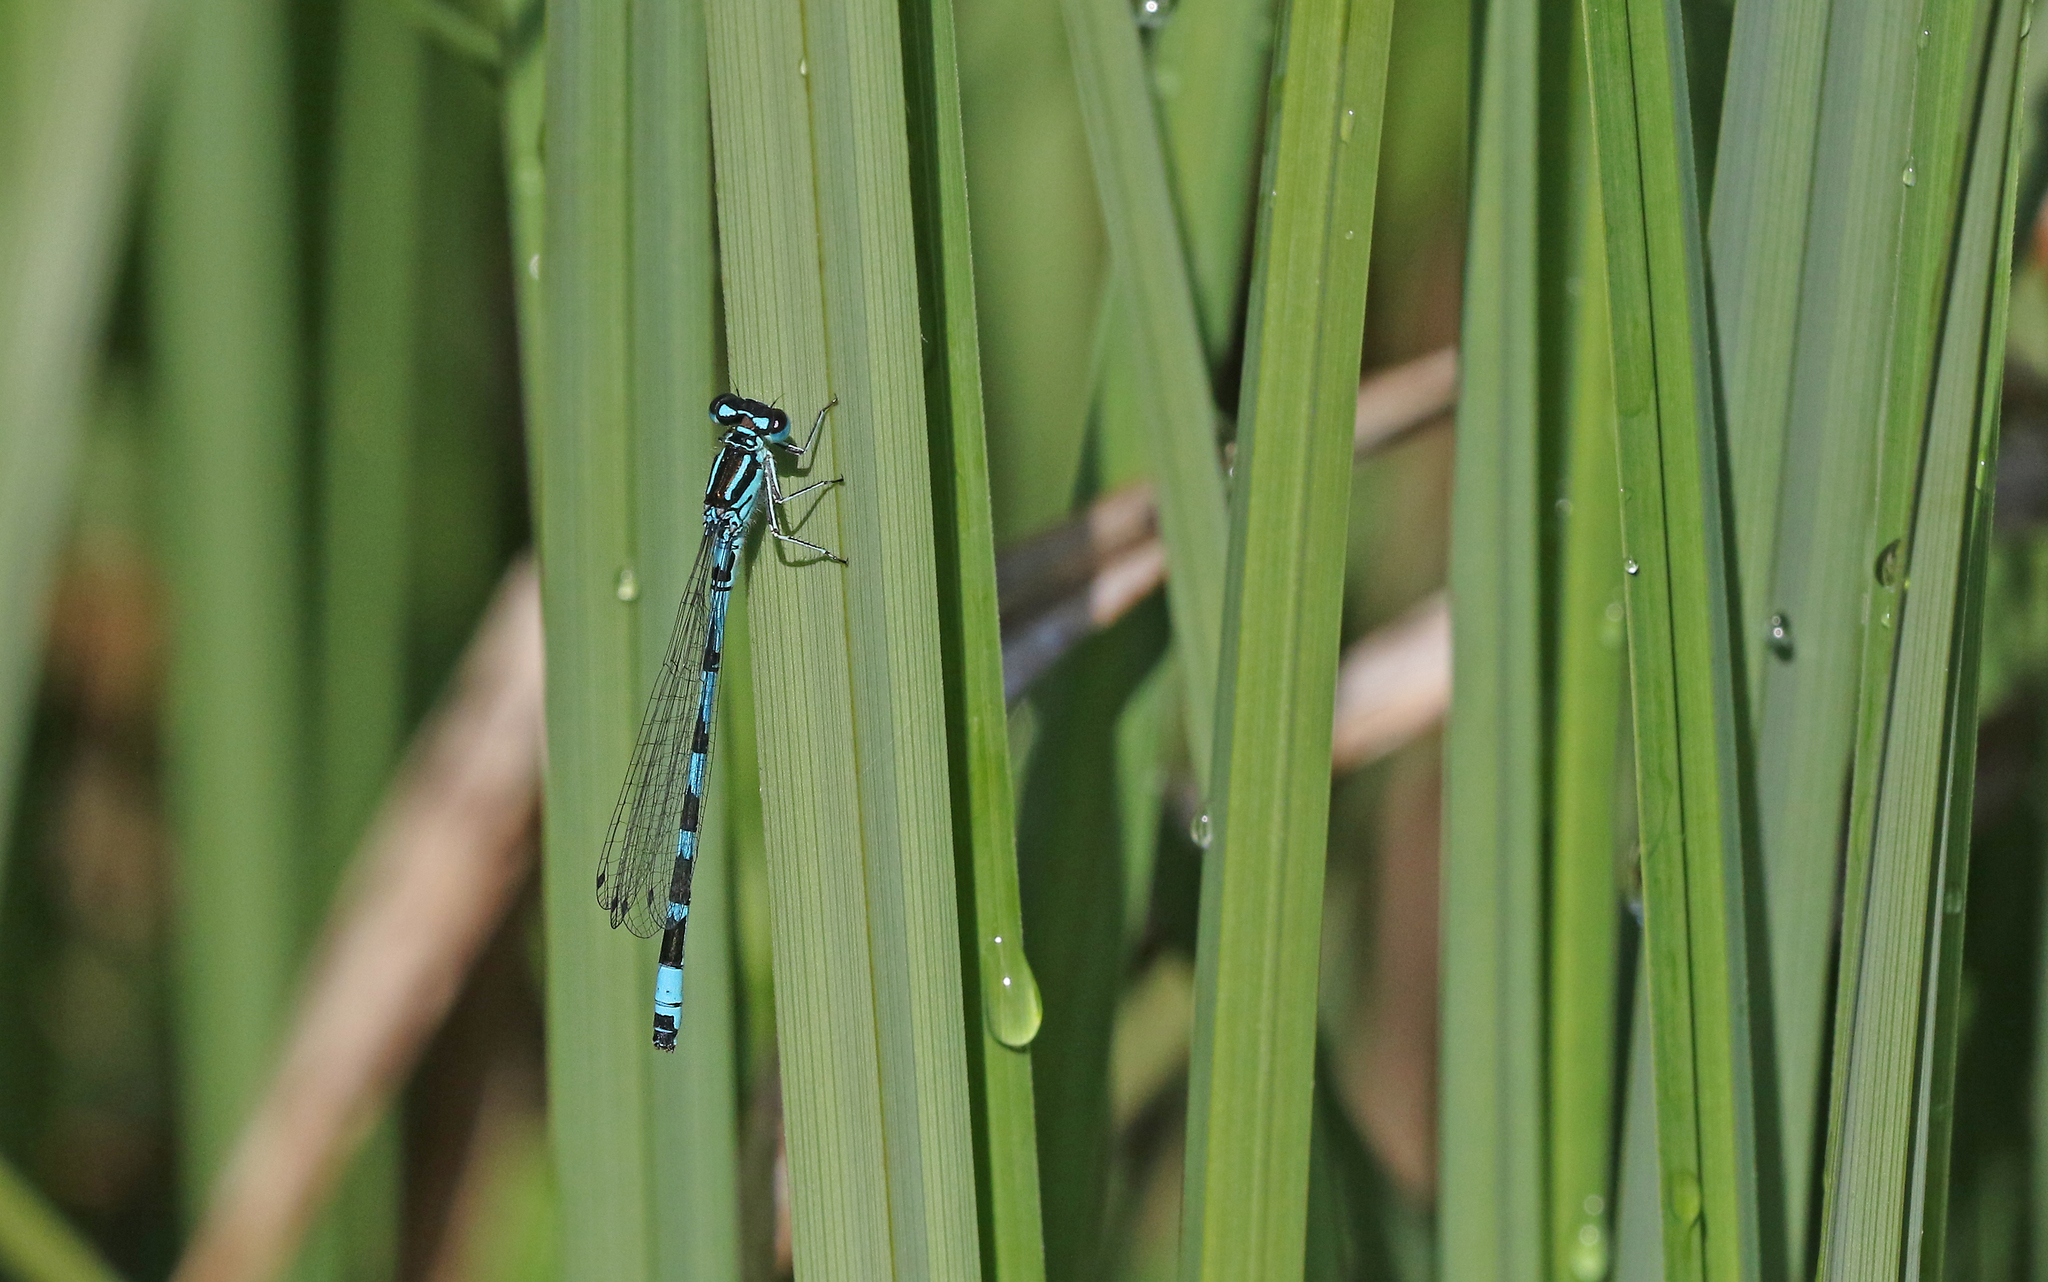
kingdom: Animalia
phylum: Arthropoda
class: Insecta
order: Odonata
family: Coenagrionidae
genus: Coenagrion
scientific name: Coenagrion ornatum
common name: Ornate bluet
